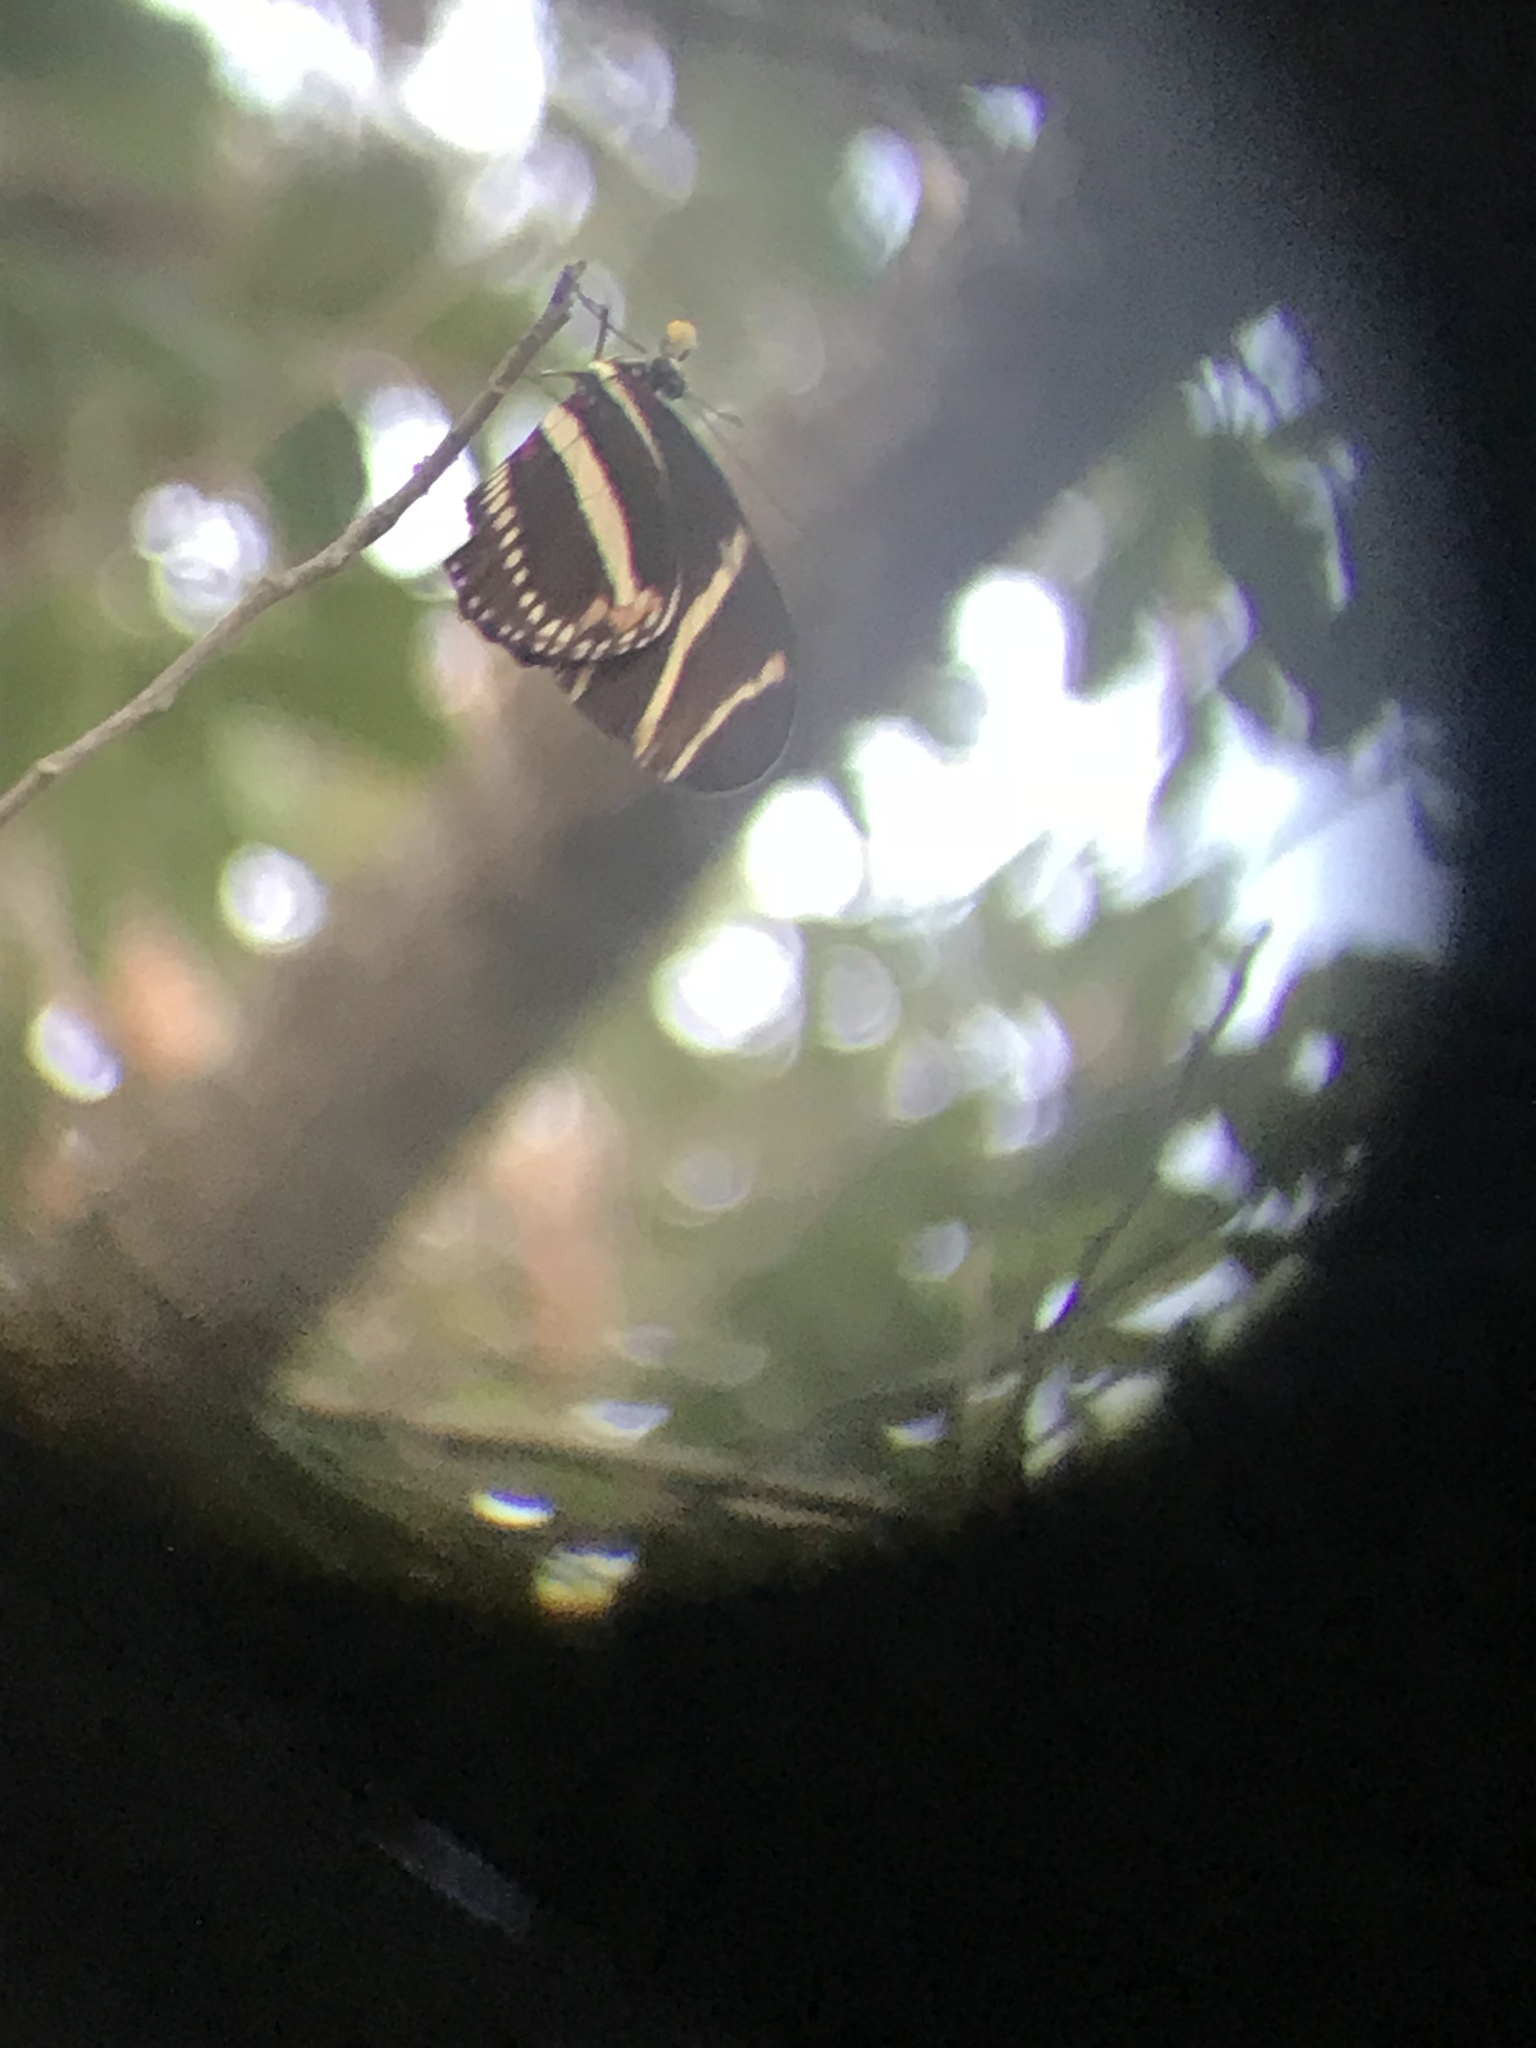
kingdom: Animalia
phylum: Arthropoda
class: Insecta
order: Lepidoptera
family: Nymphalidae
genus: Heliconius
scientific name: Heliconius charithonia
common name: Zebra long wing
